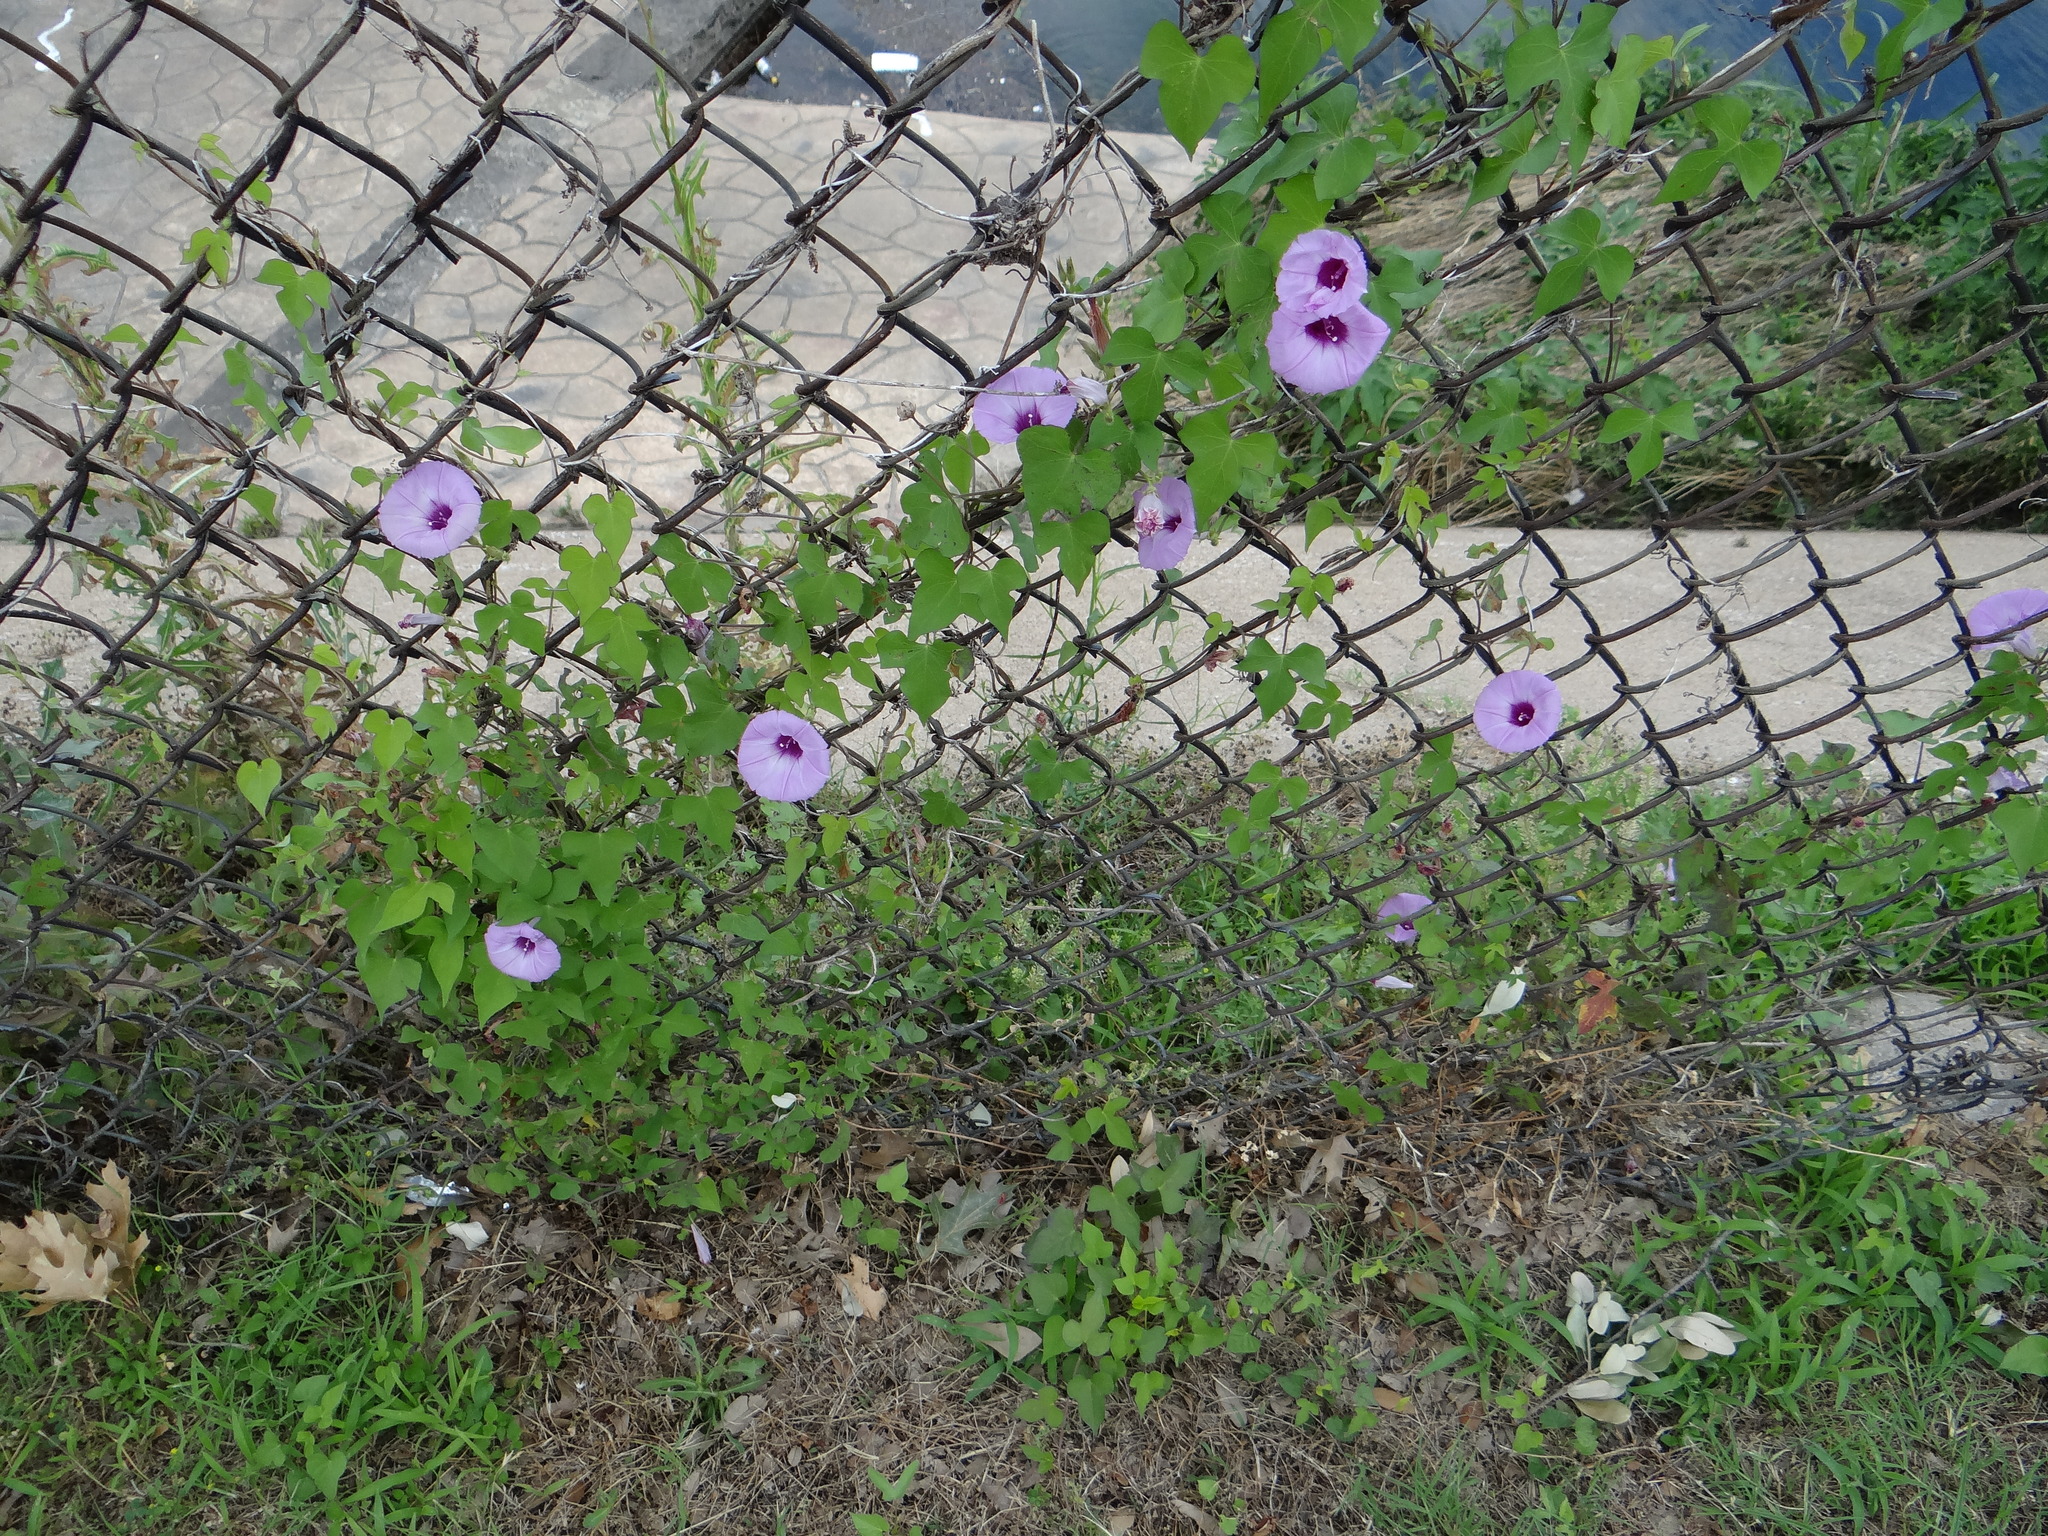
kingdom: Plantae
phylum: Tracheophyta
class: Magnoliopsida
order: Solanales
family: Convolvulaceae
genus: Ipomoea
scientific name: Ipomoea cordatotriloba
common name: Cotton morning glory
